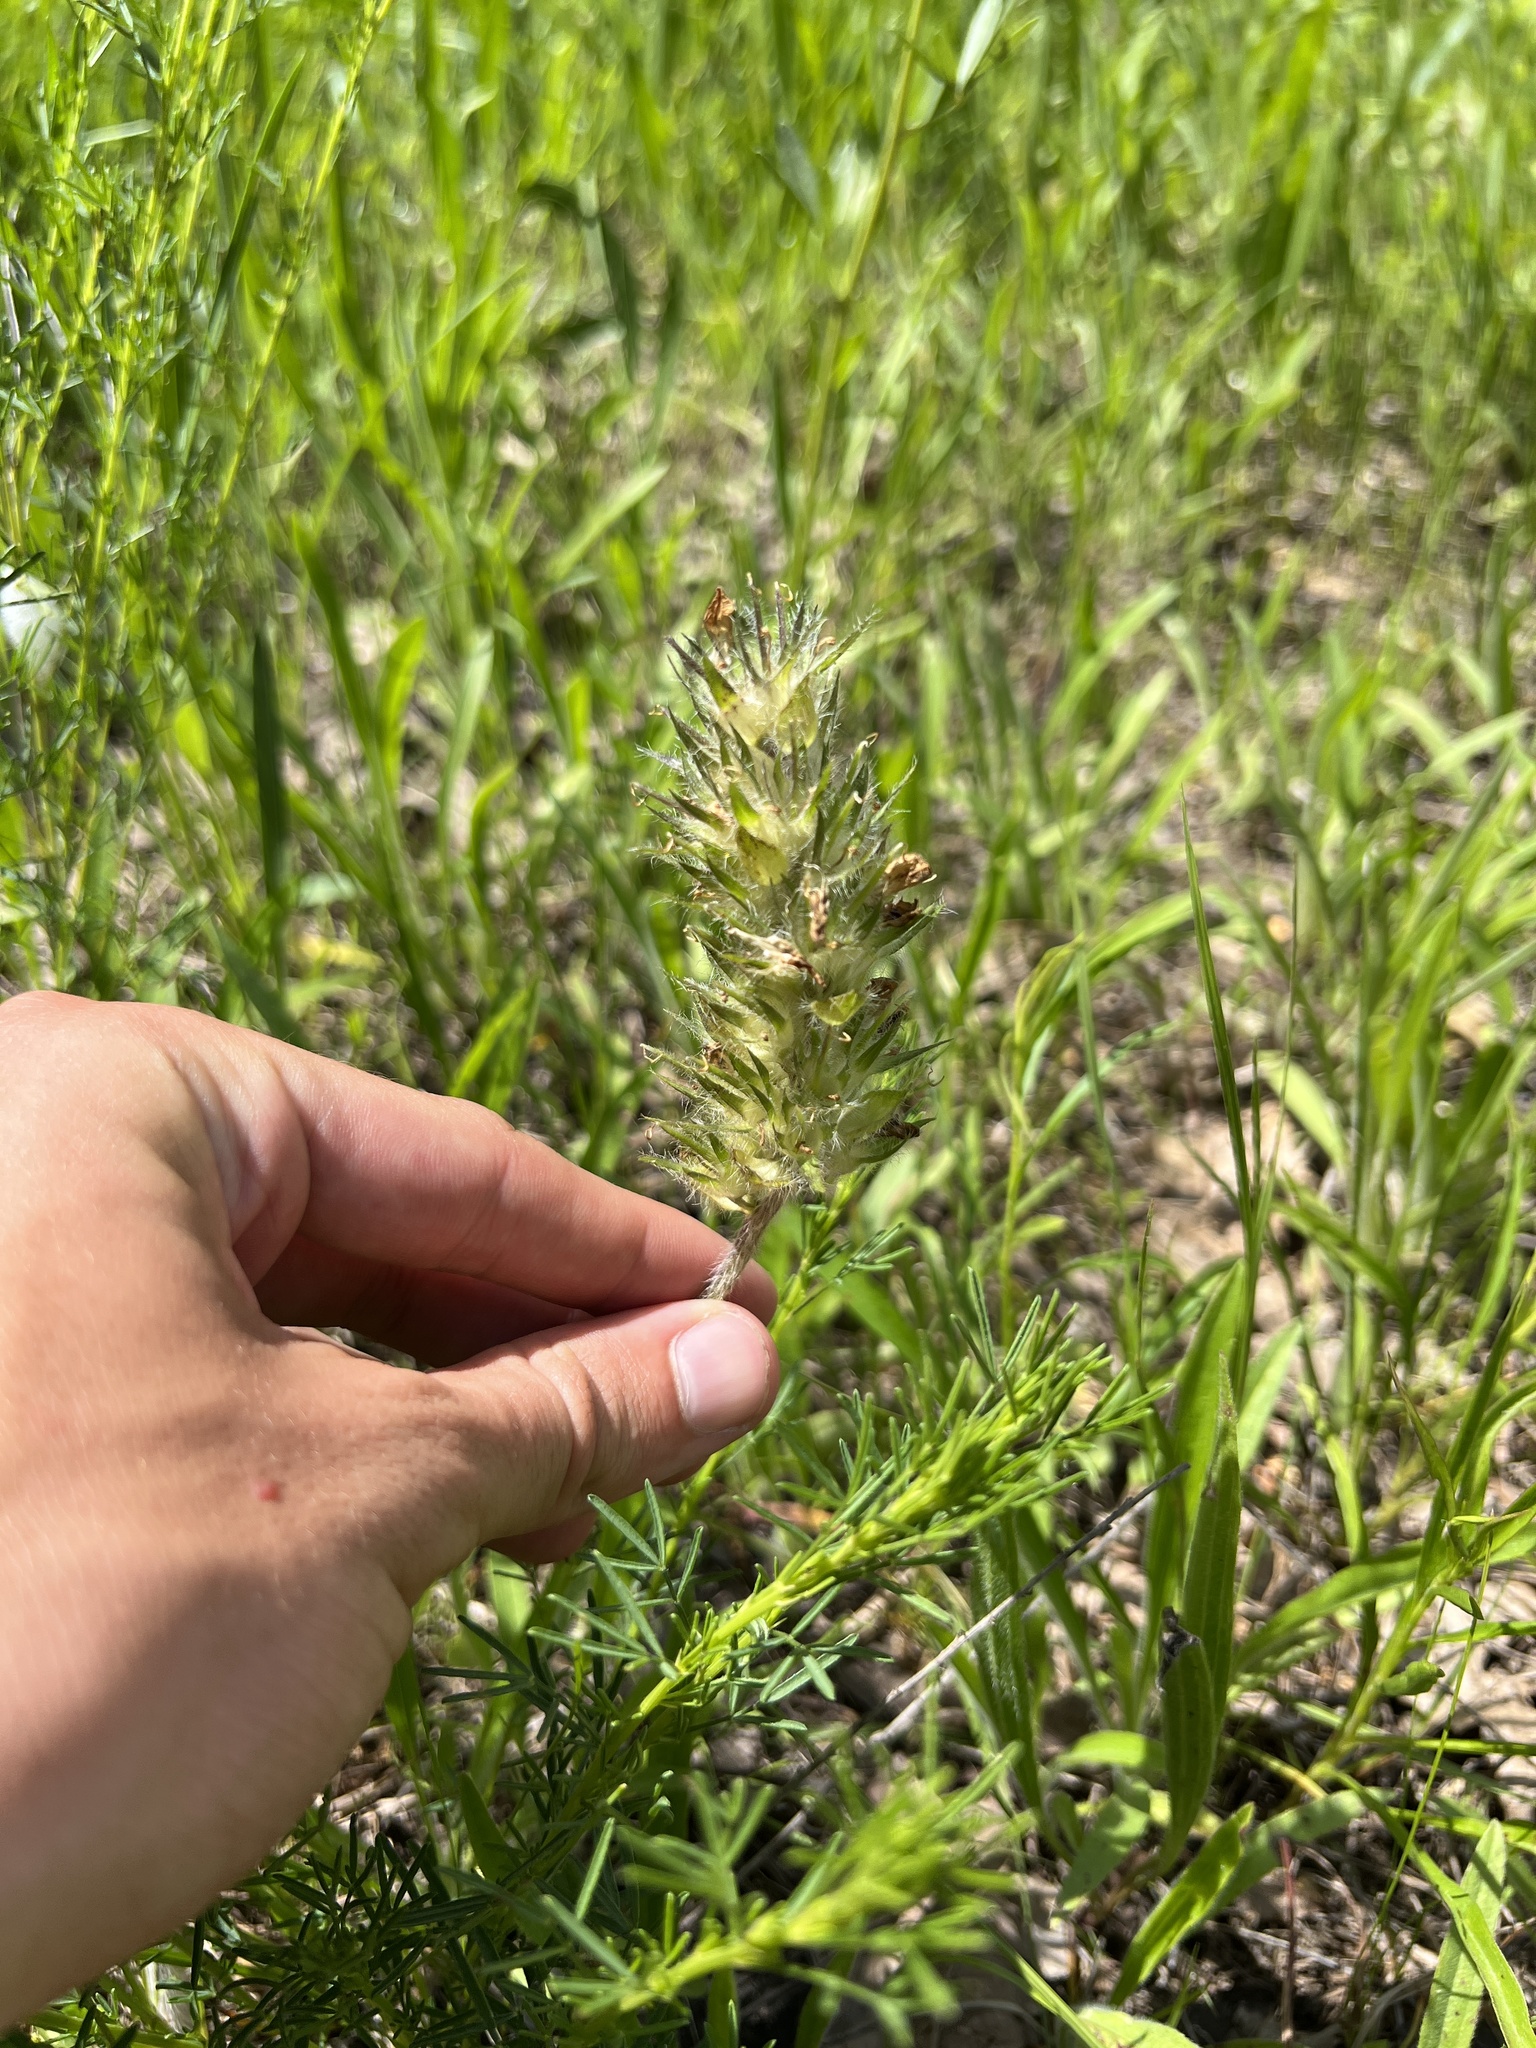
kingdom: Plantae
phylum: Tracheophyta
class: Magnoliopsida
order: Fabales
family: Fabaceae
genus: Pediomelum
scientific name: Pediomelum esculentum
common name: Indian-turnip
